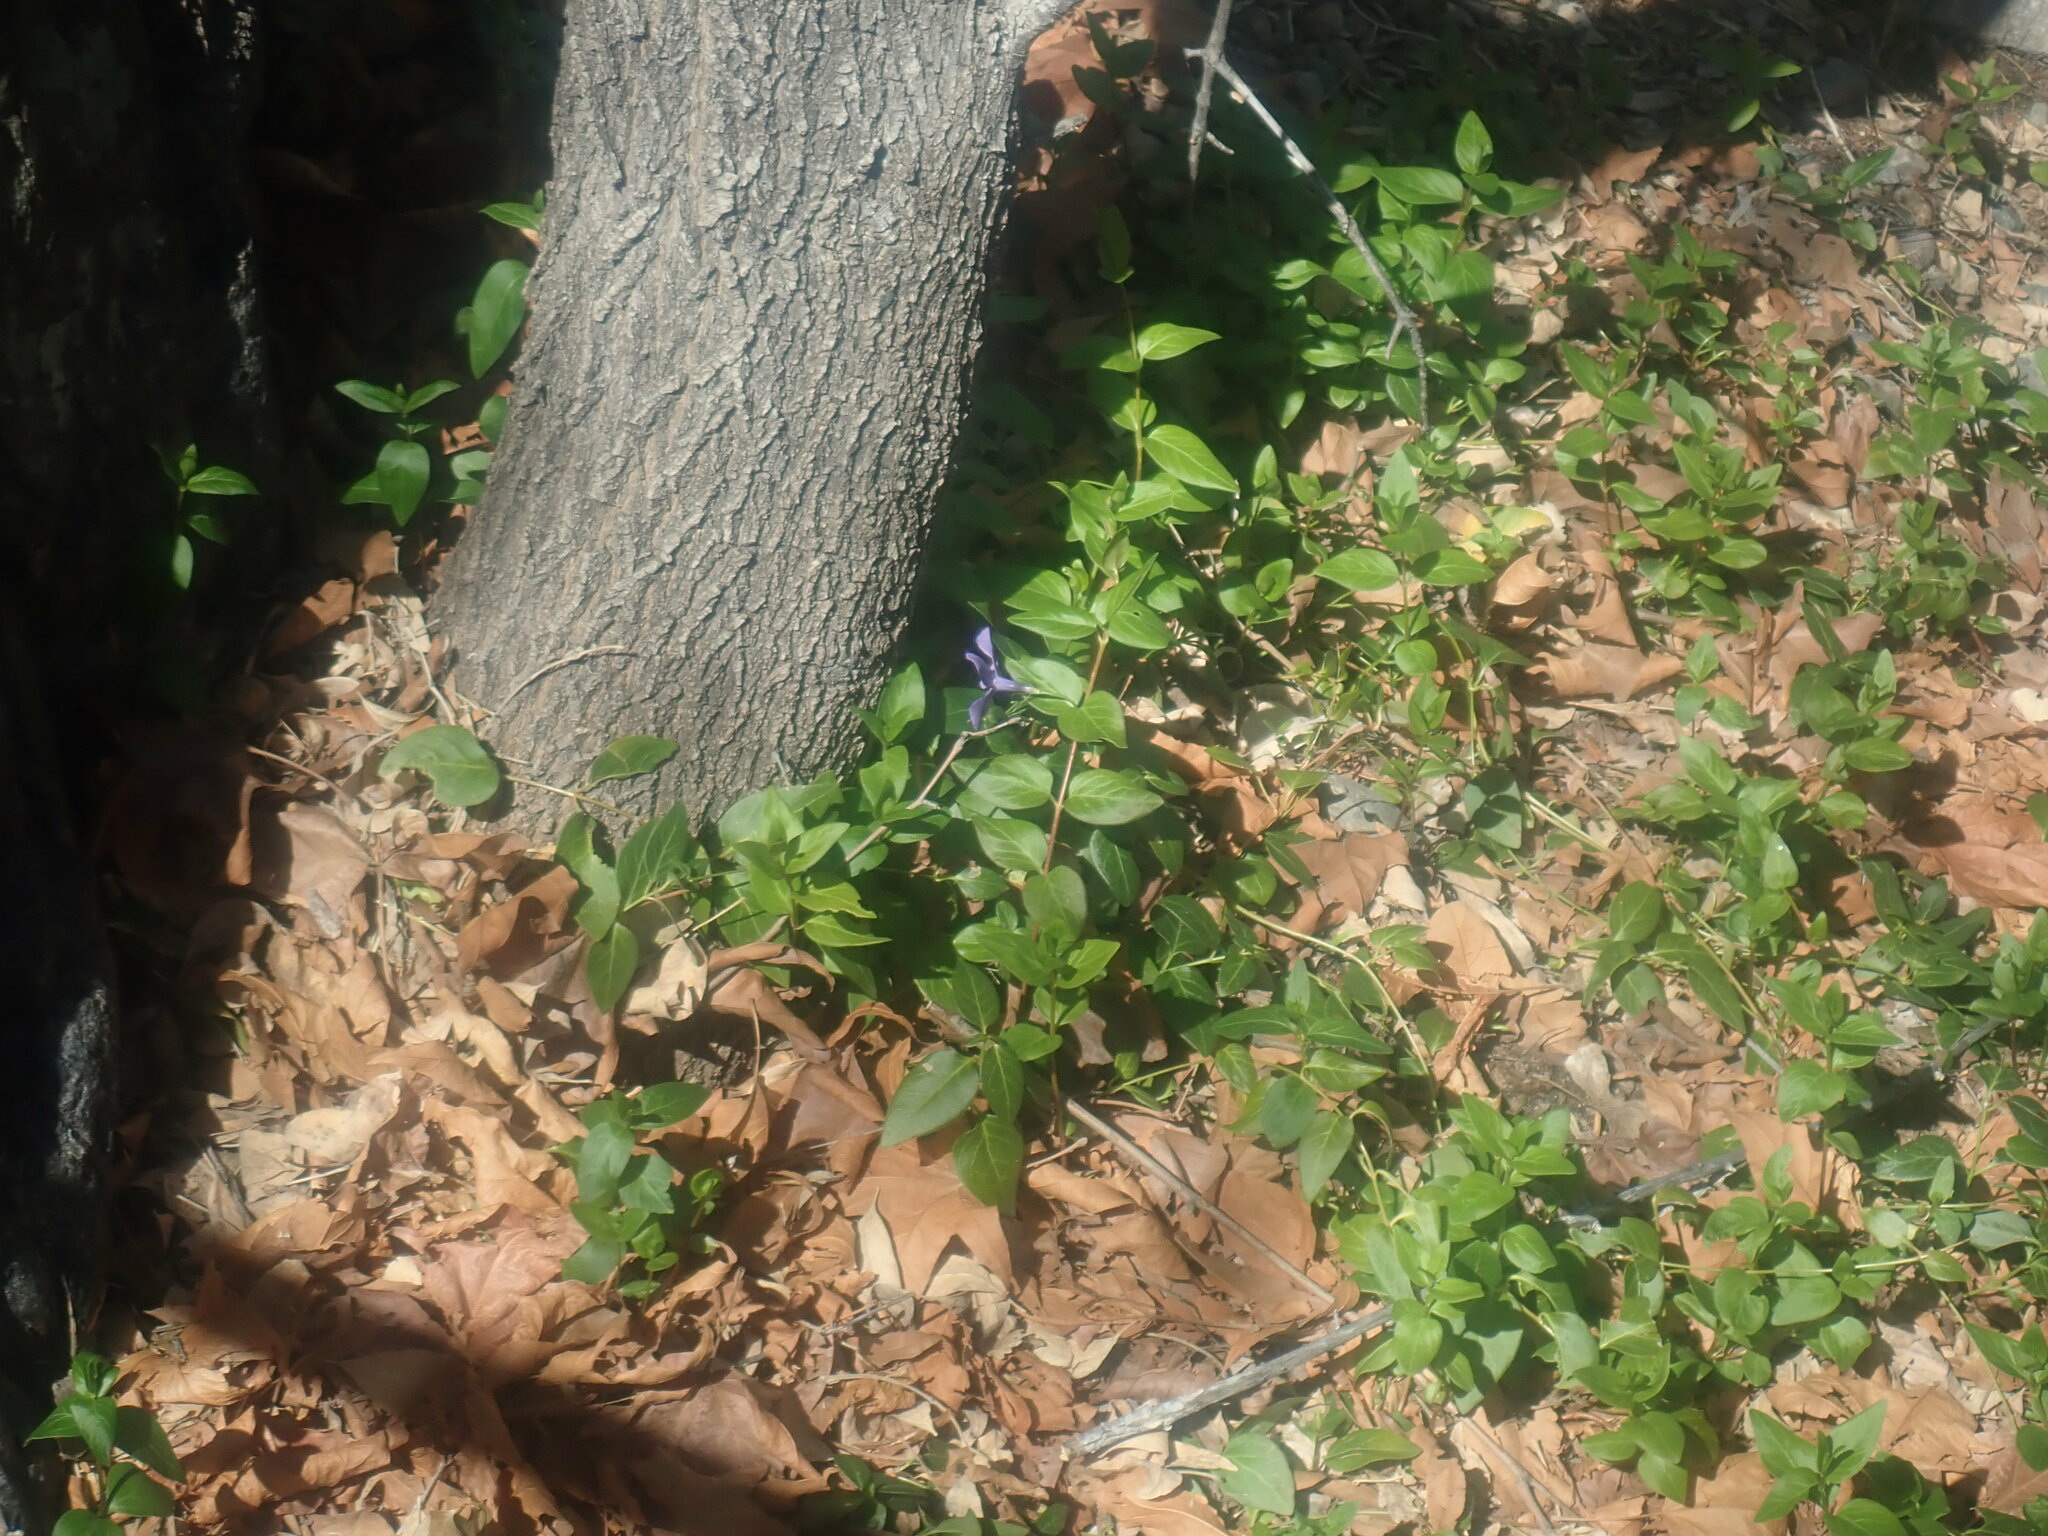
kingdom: Plantae
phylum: Tracheophyta
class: Magnoliopsida
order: Gentianales
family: Apocynaceae
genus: Vinca
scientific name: Vinca major
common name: Greater periwinkle
